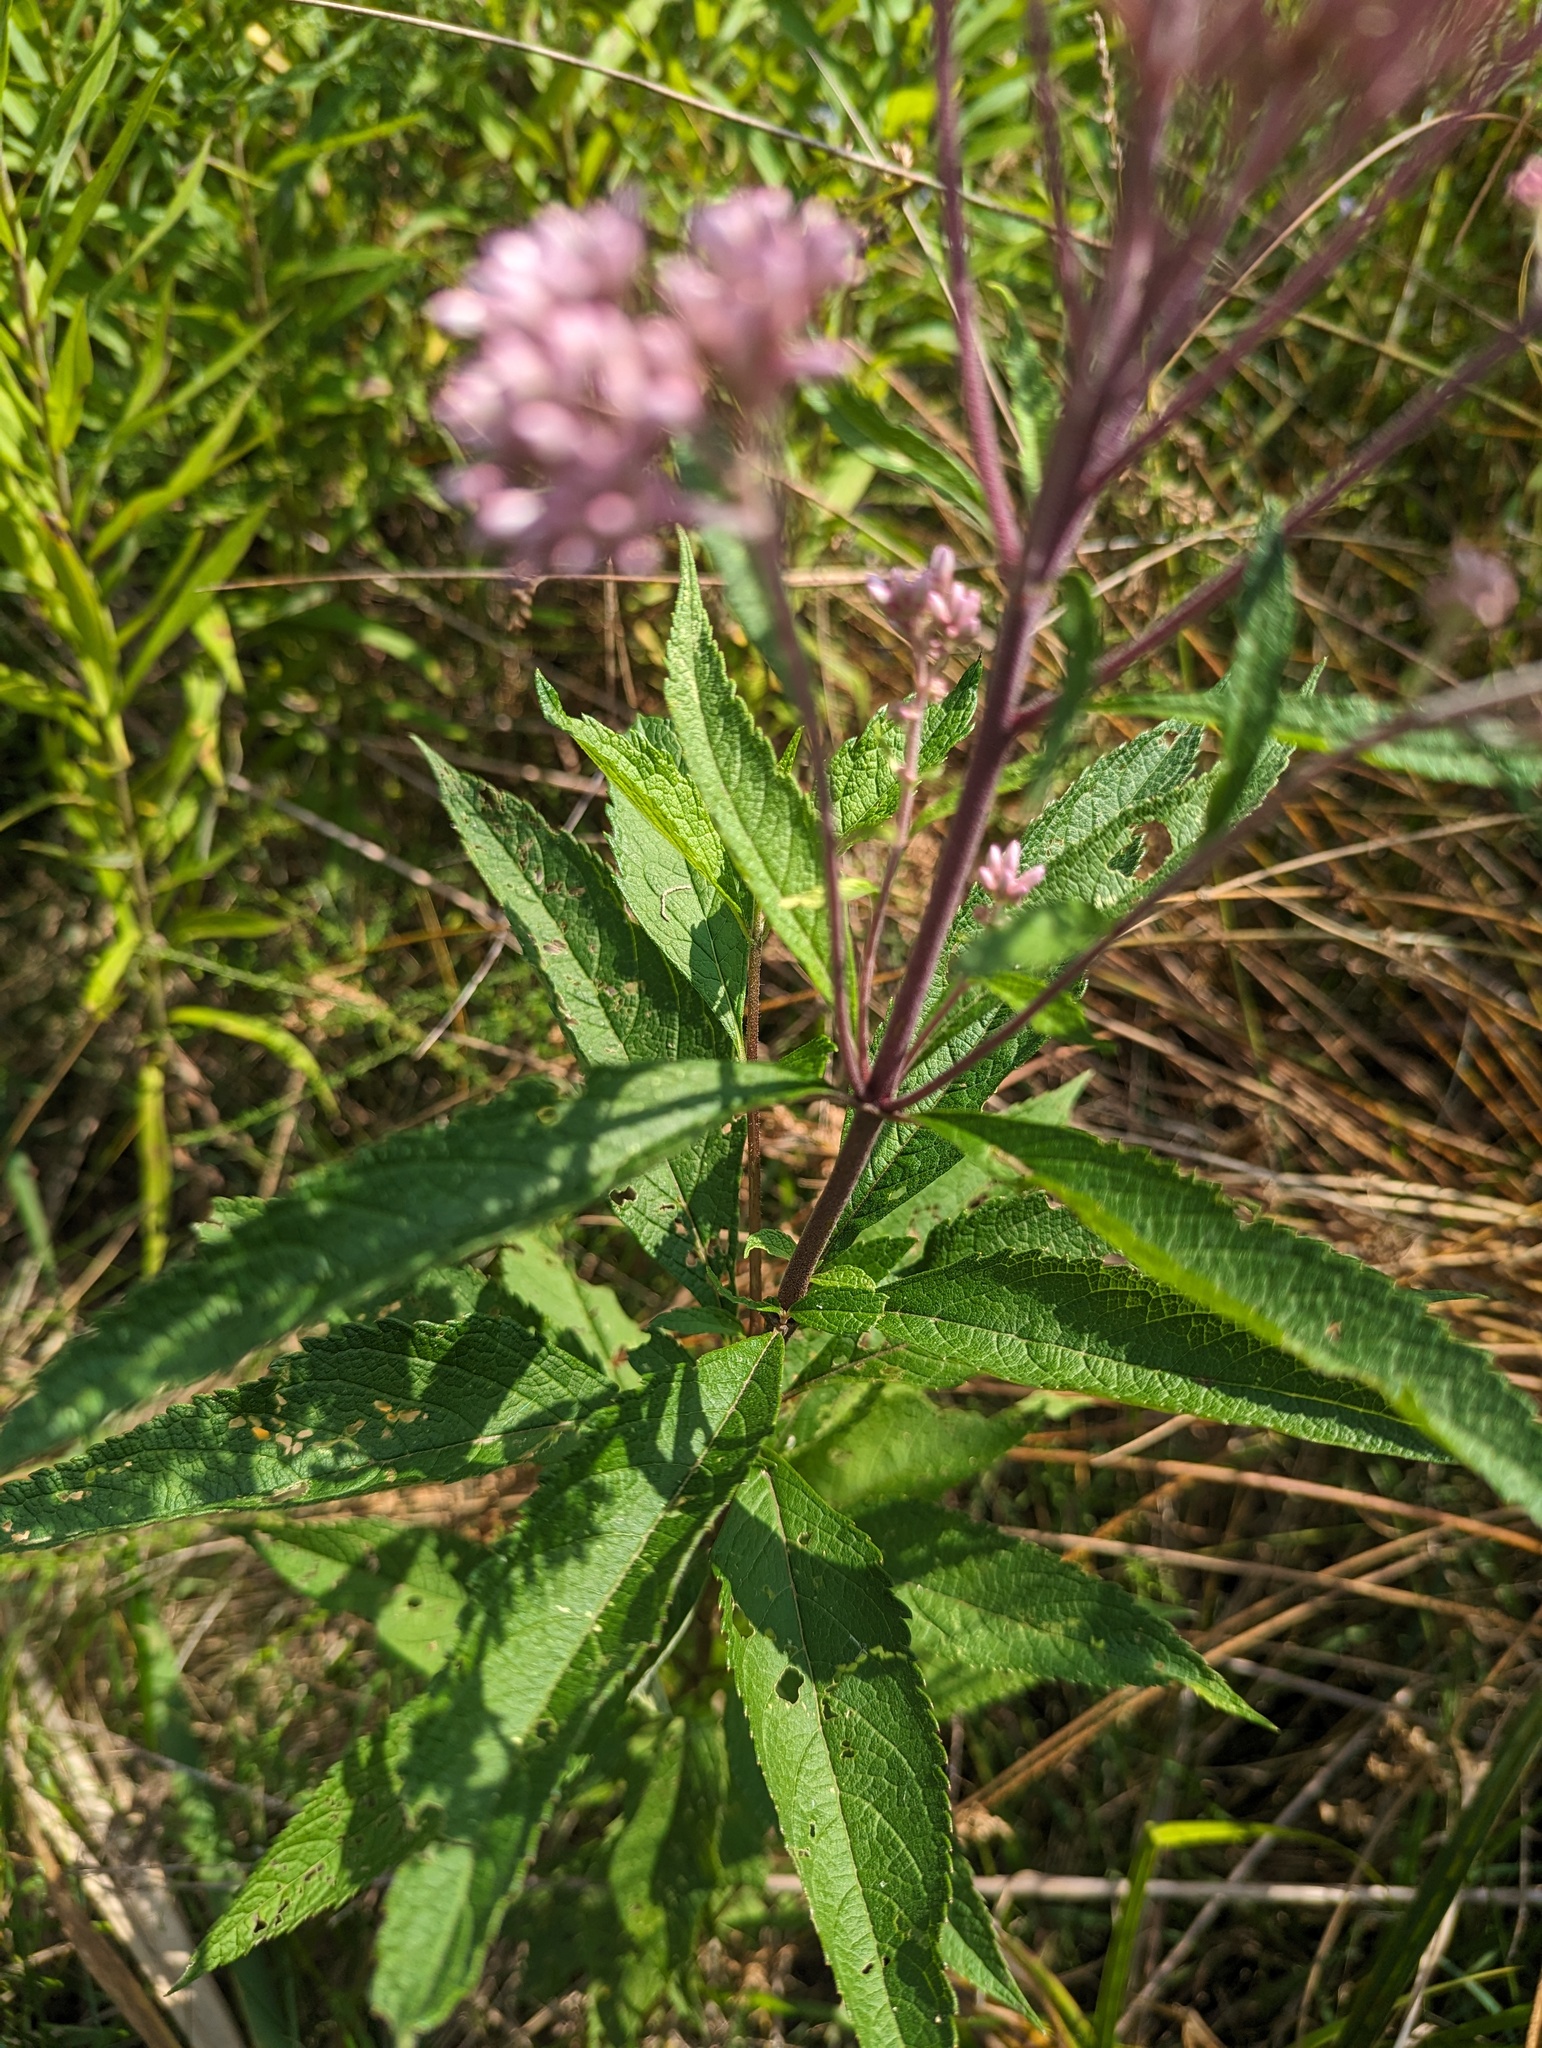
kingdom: Plantae
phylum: Tracheophyta
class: Magnoliopsida
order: Asterales
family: Asteraceae
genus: Eutrochium
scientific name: Eutrochium maculatum
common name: Spotted joe pye weed
